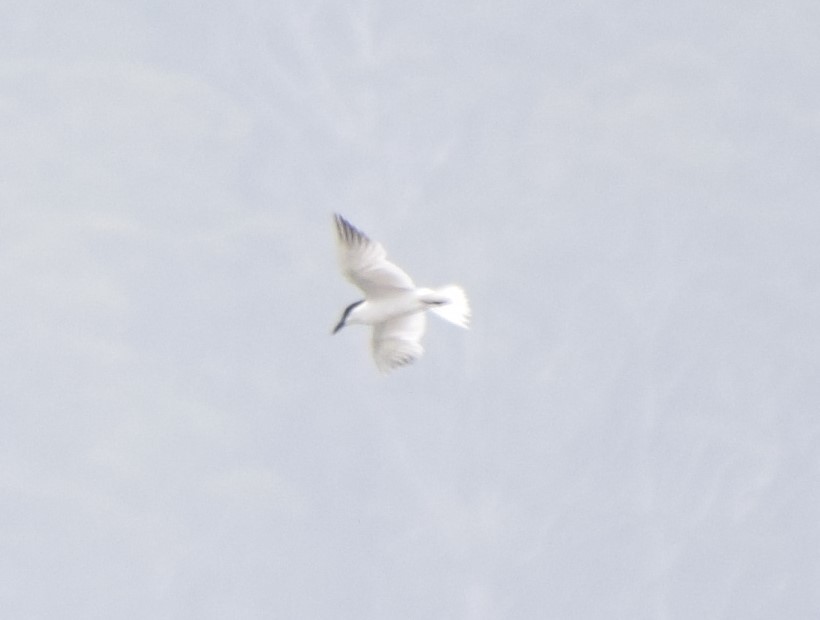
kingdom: Animalia
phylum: Chordata
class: Aves
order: Charadriiformes
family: Laridae
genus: Gelochelidon
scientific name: Gelochelidon macrotarsa
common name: Australian tern
